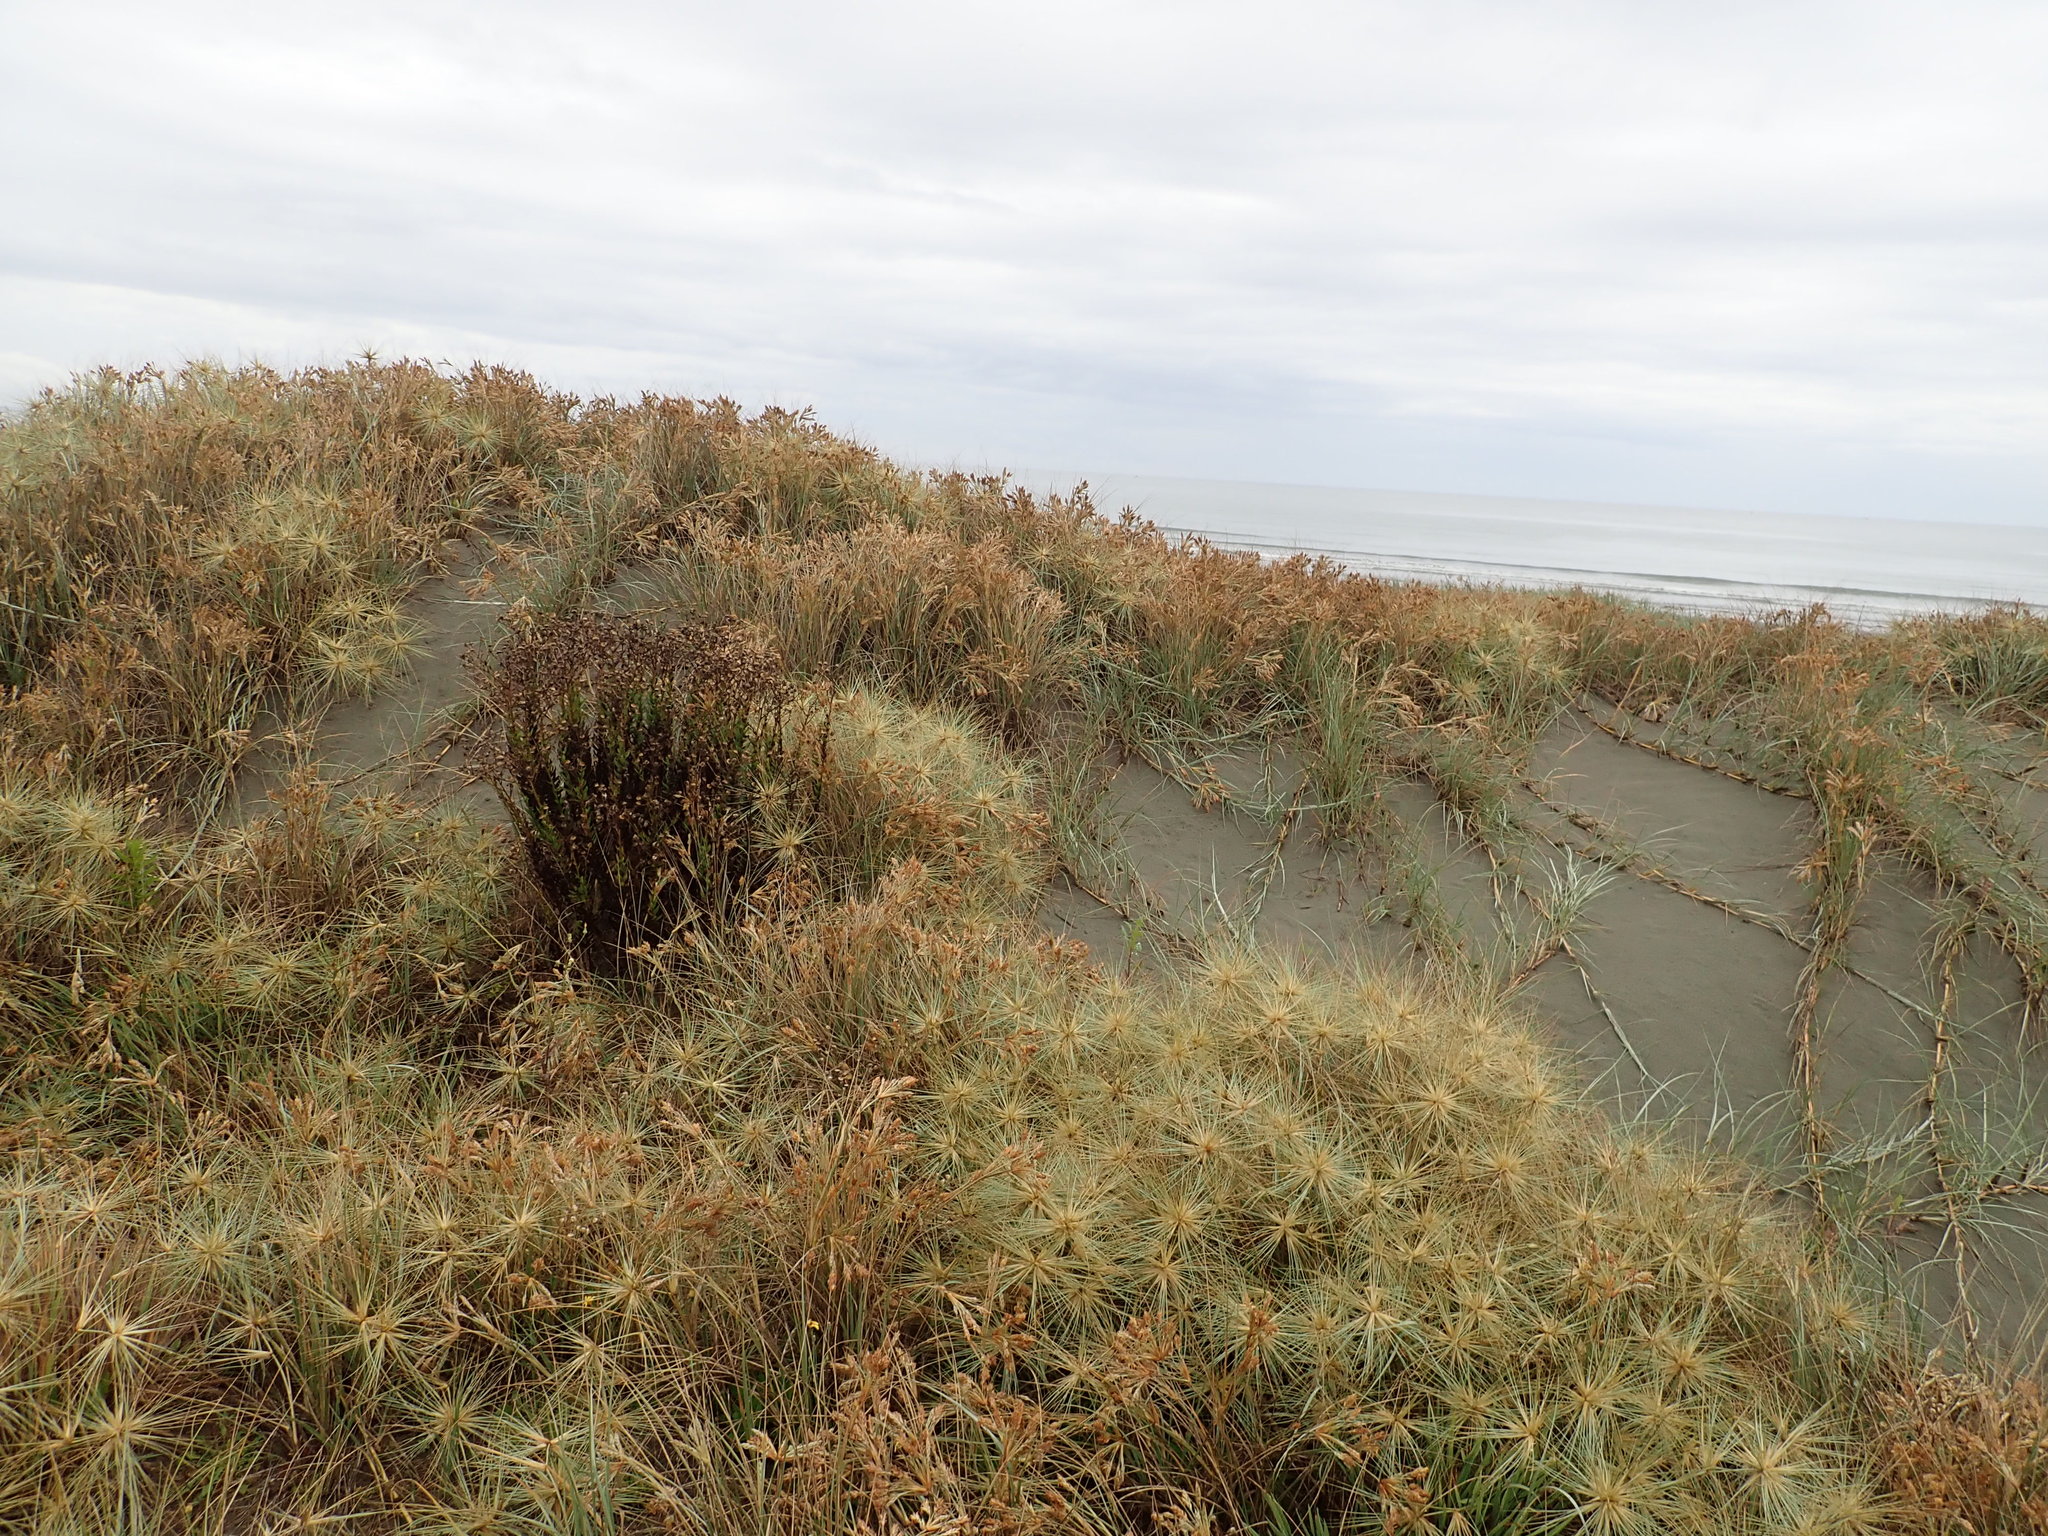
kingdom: Plantae
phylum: Tracheophyta
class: Magnoliopsida
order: Asterales
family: Asteraceae
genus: Senecio
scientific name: Senecio glastifolius
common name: Woad-leaved ragwort
